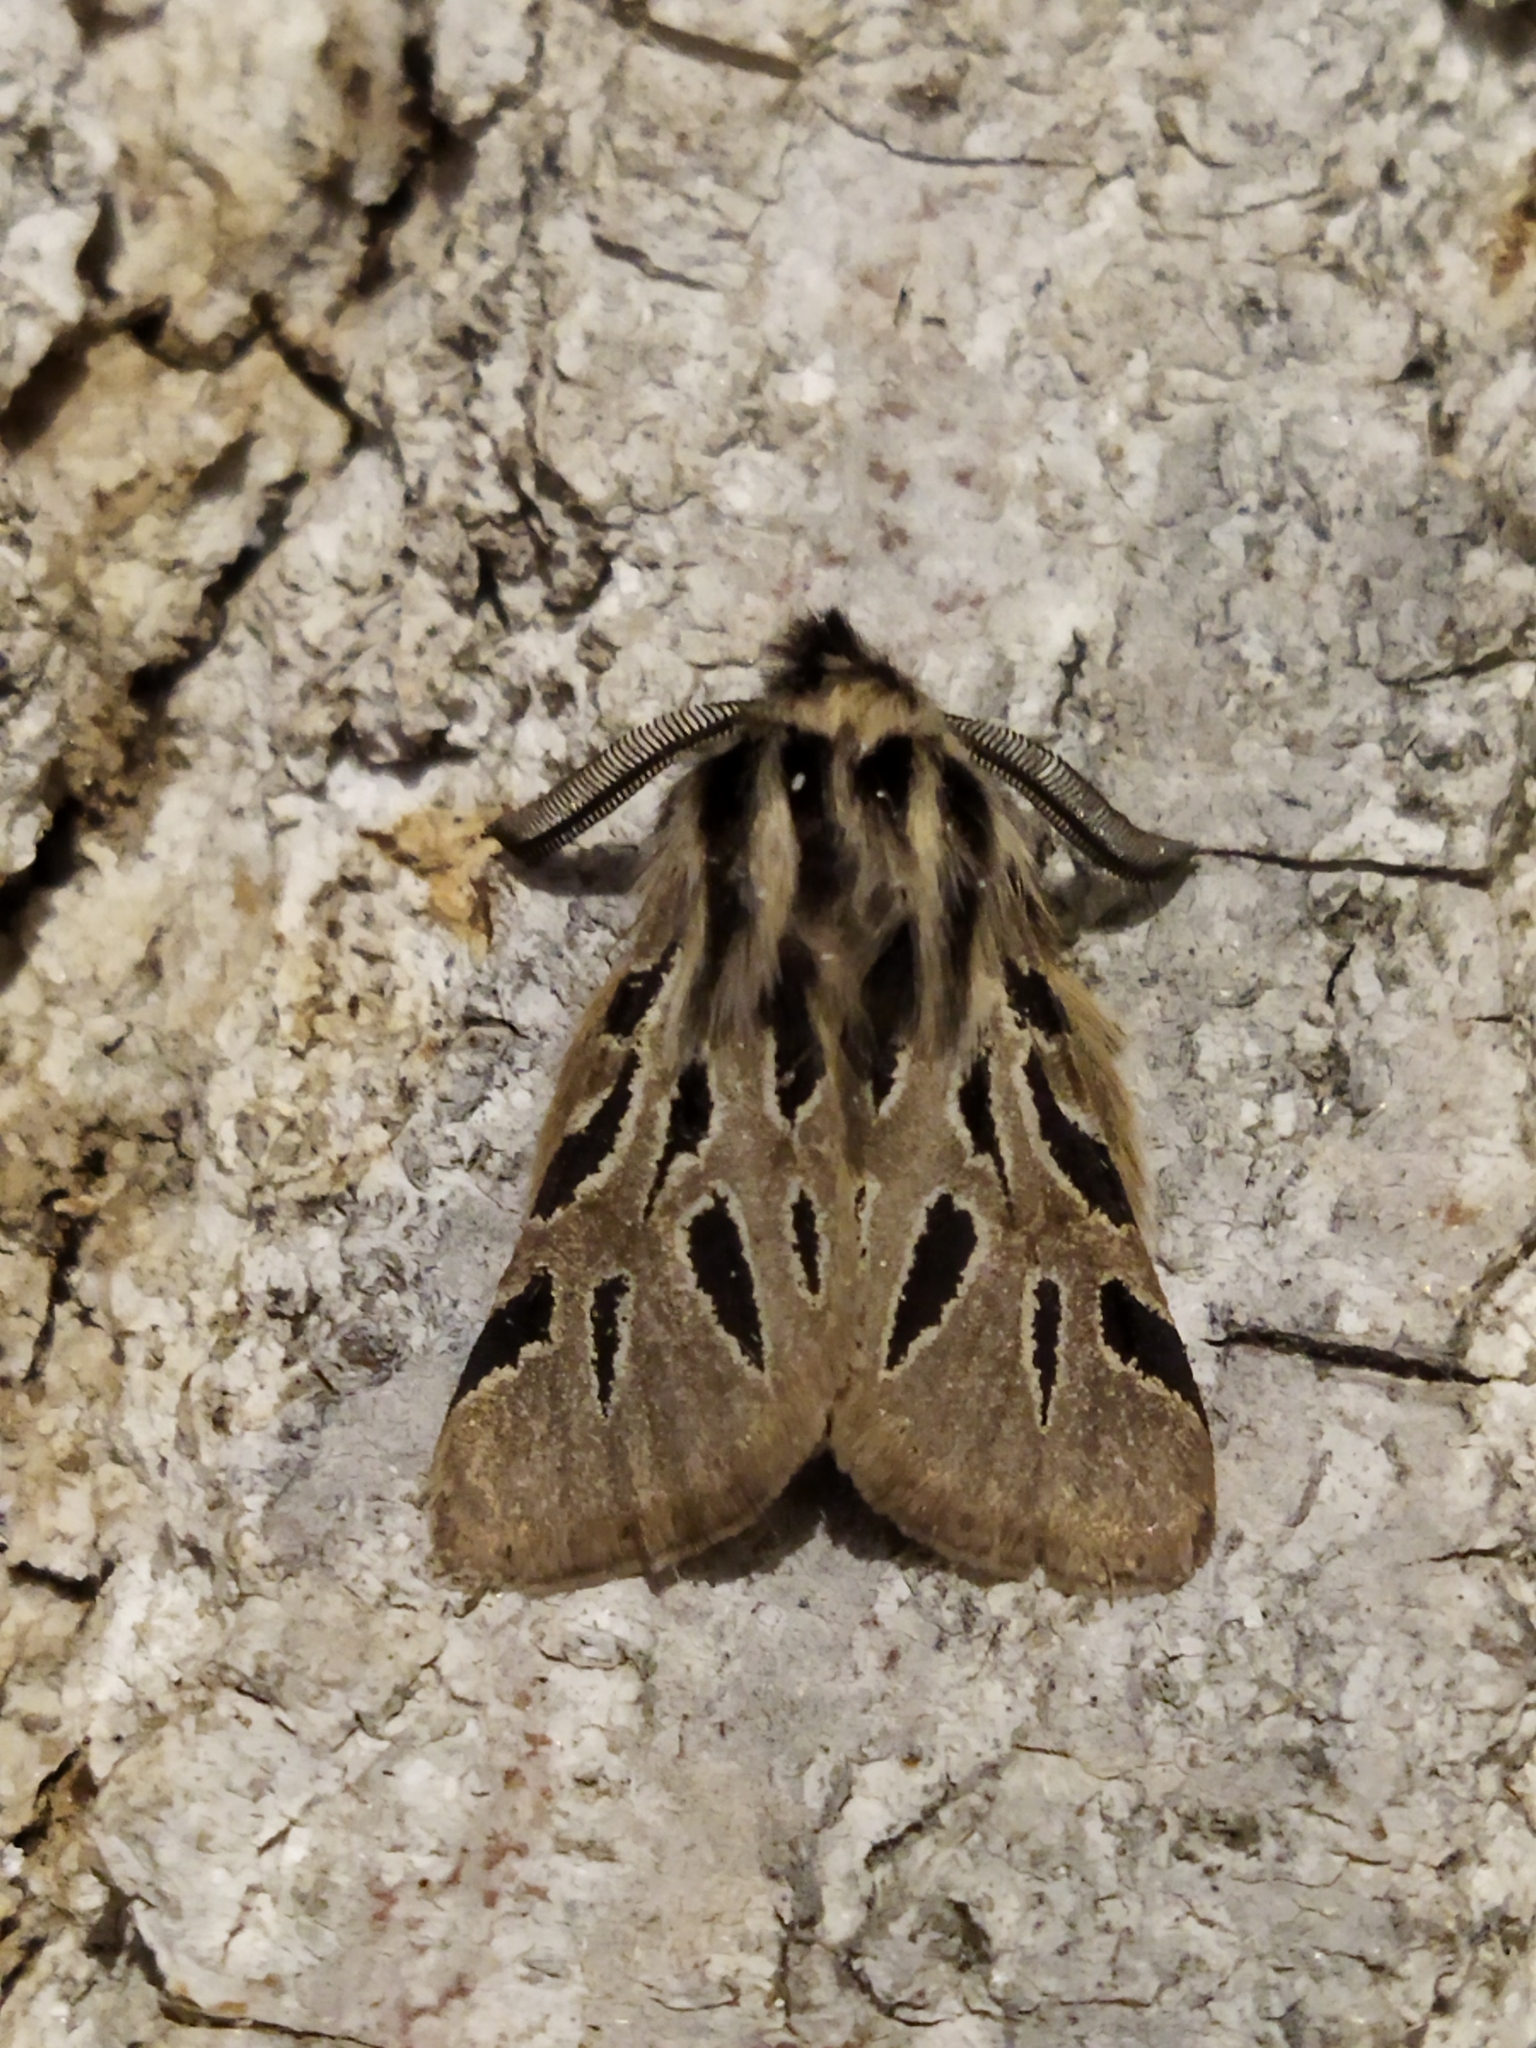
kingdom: Animalia
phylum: Arthropoda
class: Insecta
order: Lepidoptera
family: Erebidae
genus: Ocnogyna
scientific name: Ocnogyna parasita
